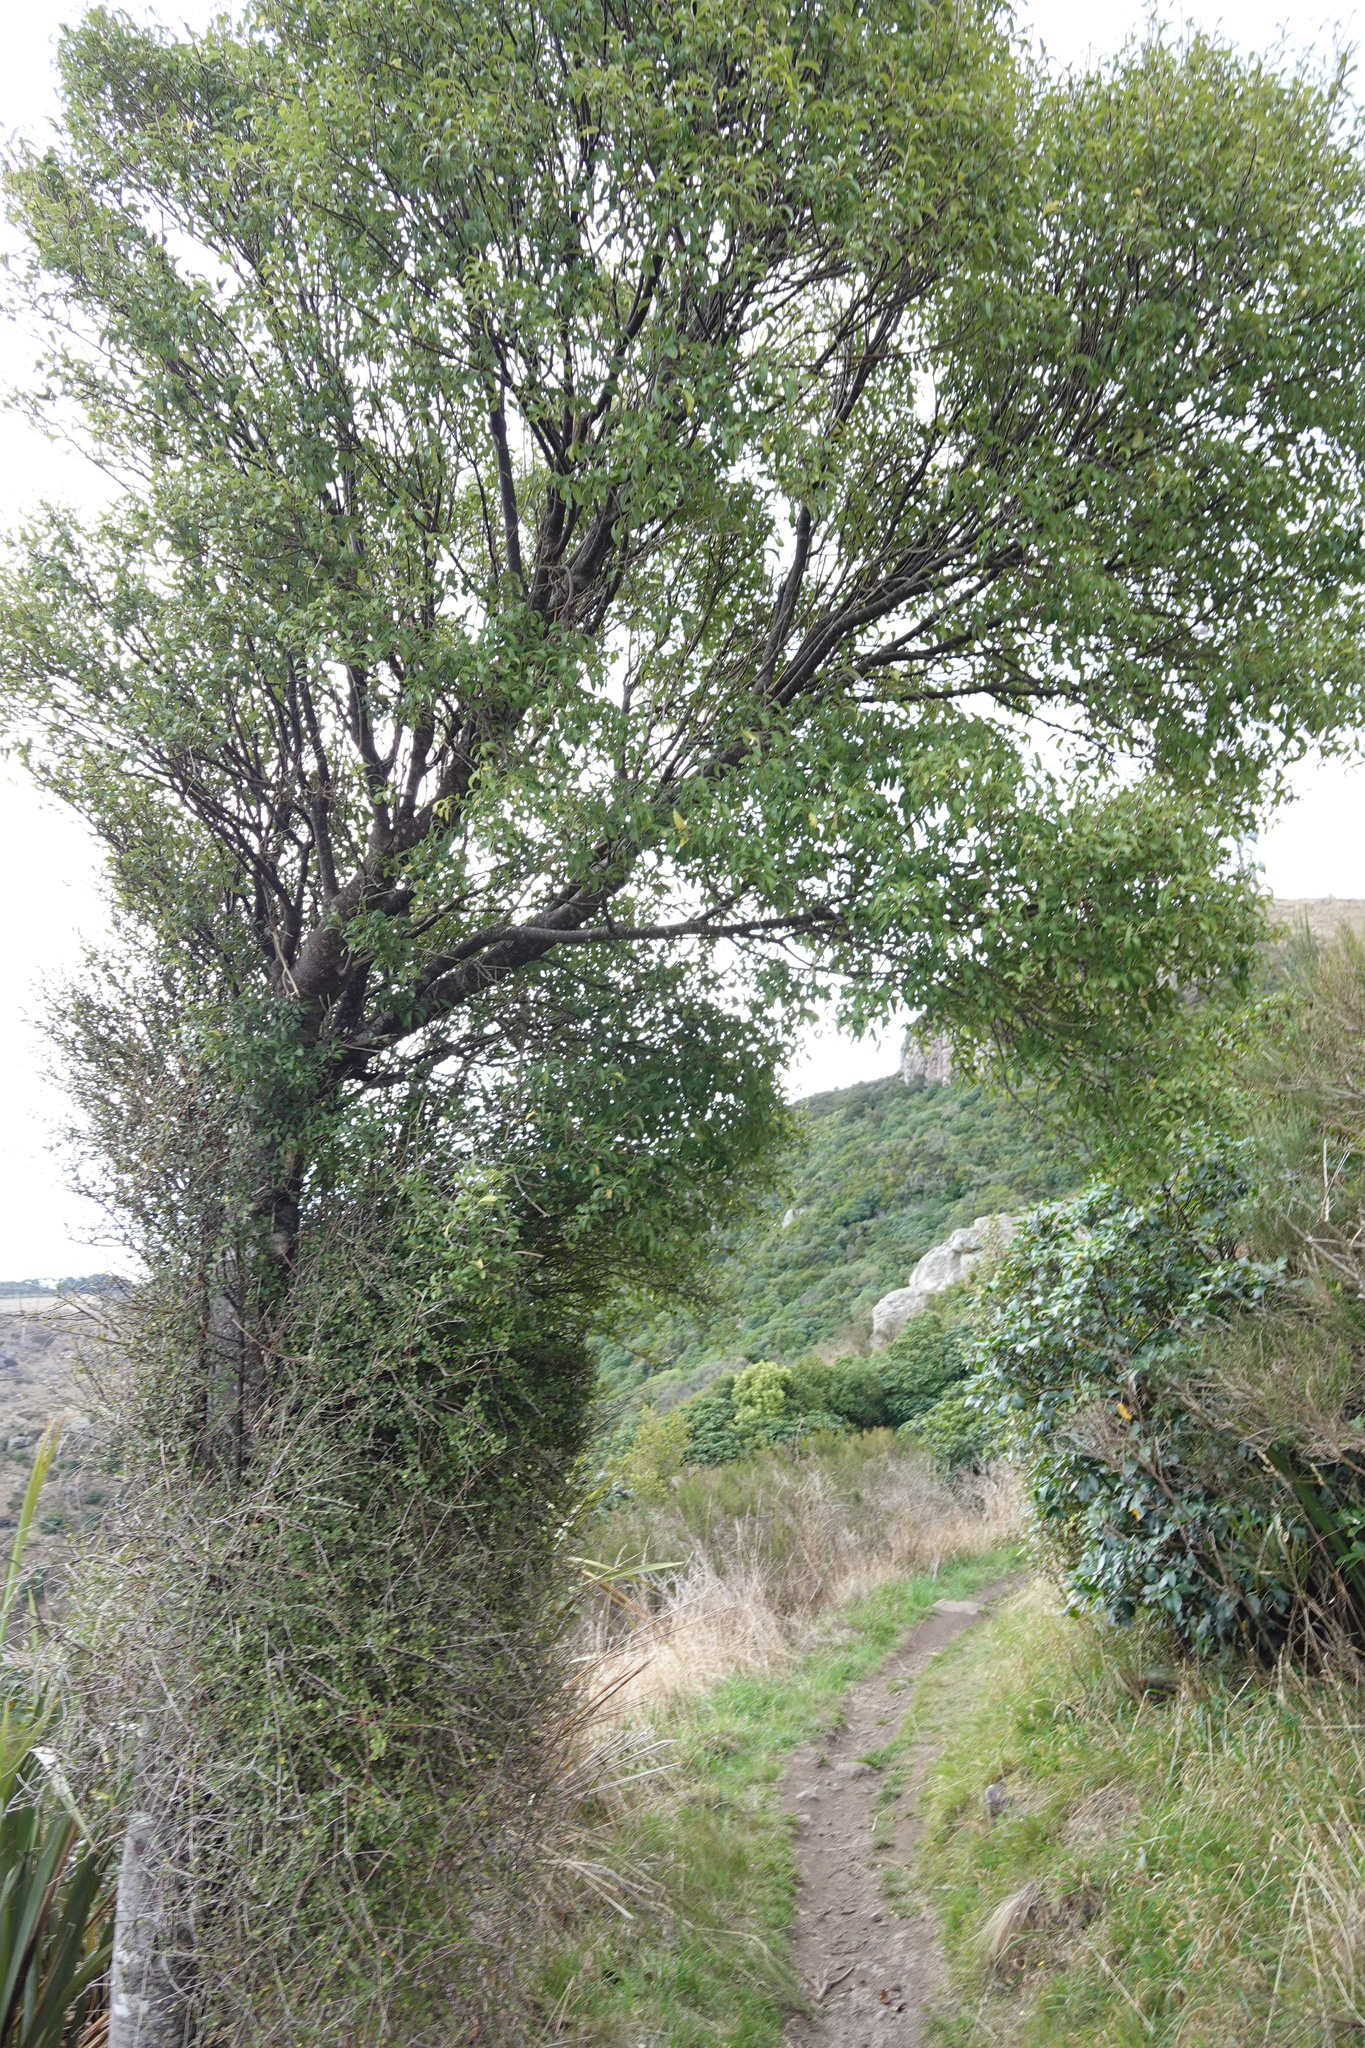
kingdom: Plantae
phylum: Tracheophyta
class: Magnoliopsida
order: Malvales
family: Malvaceae
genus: Hoheria
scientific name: Hoheria angustifolia
